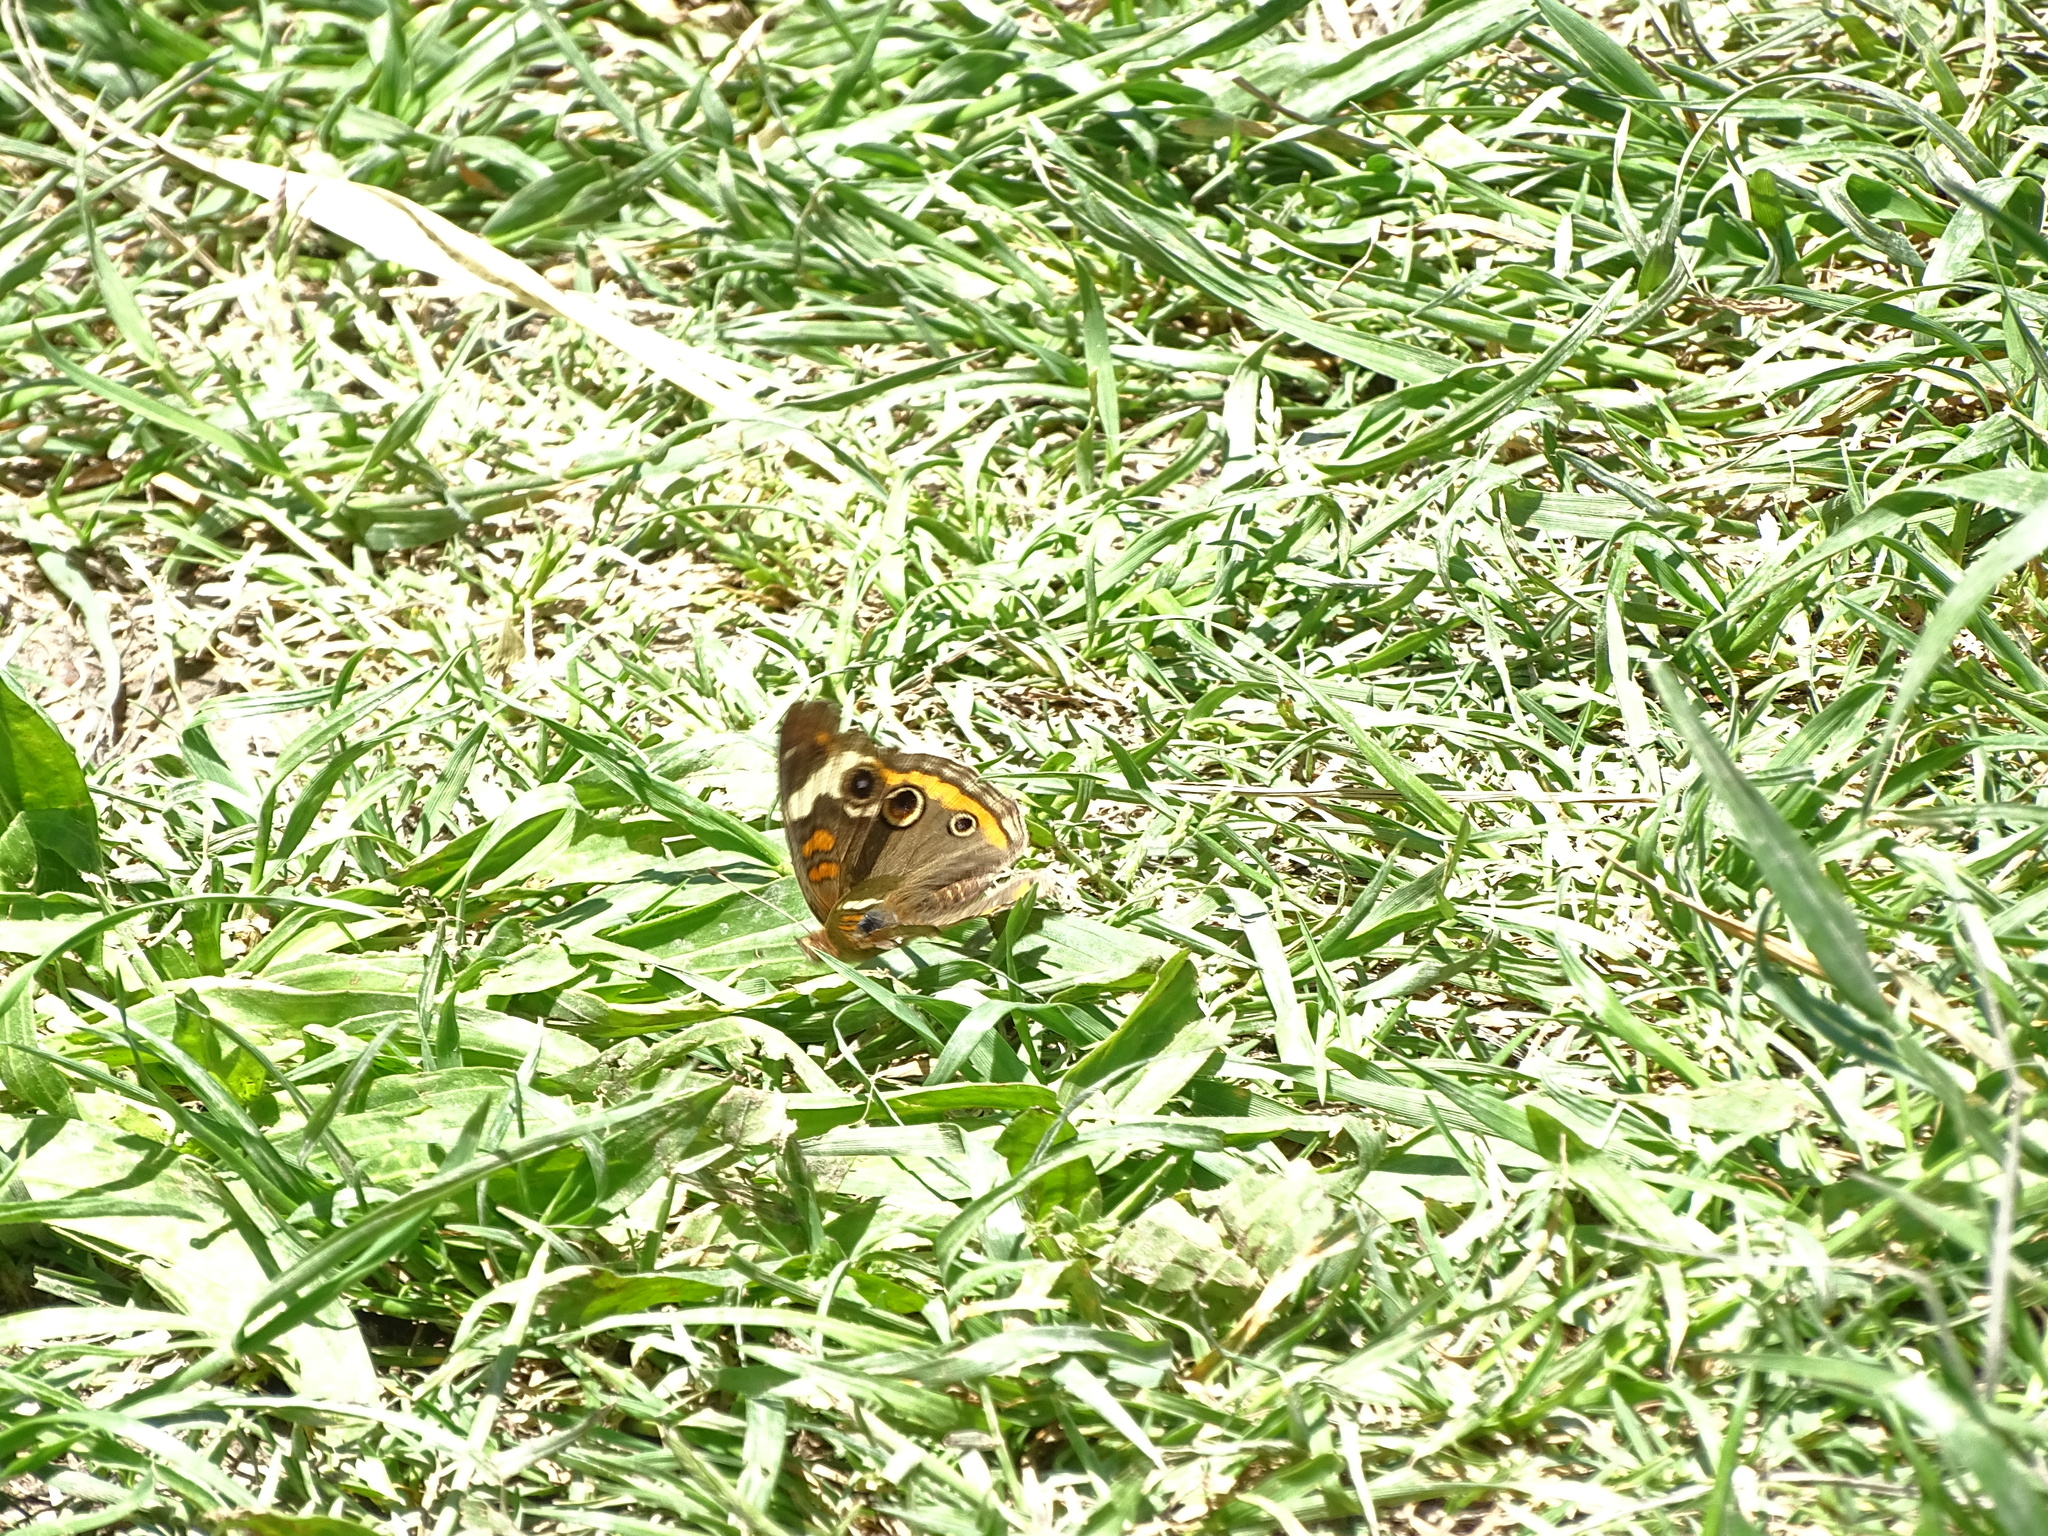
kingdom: Animalia
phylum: Arthropoda
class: Insecta
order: Lepidoptera
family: Nymphalidae
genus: Junonia
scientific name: Junonia coenia
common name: Common buckeye
